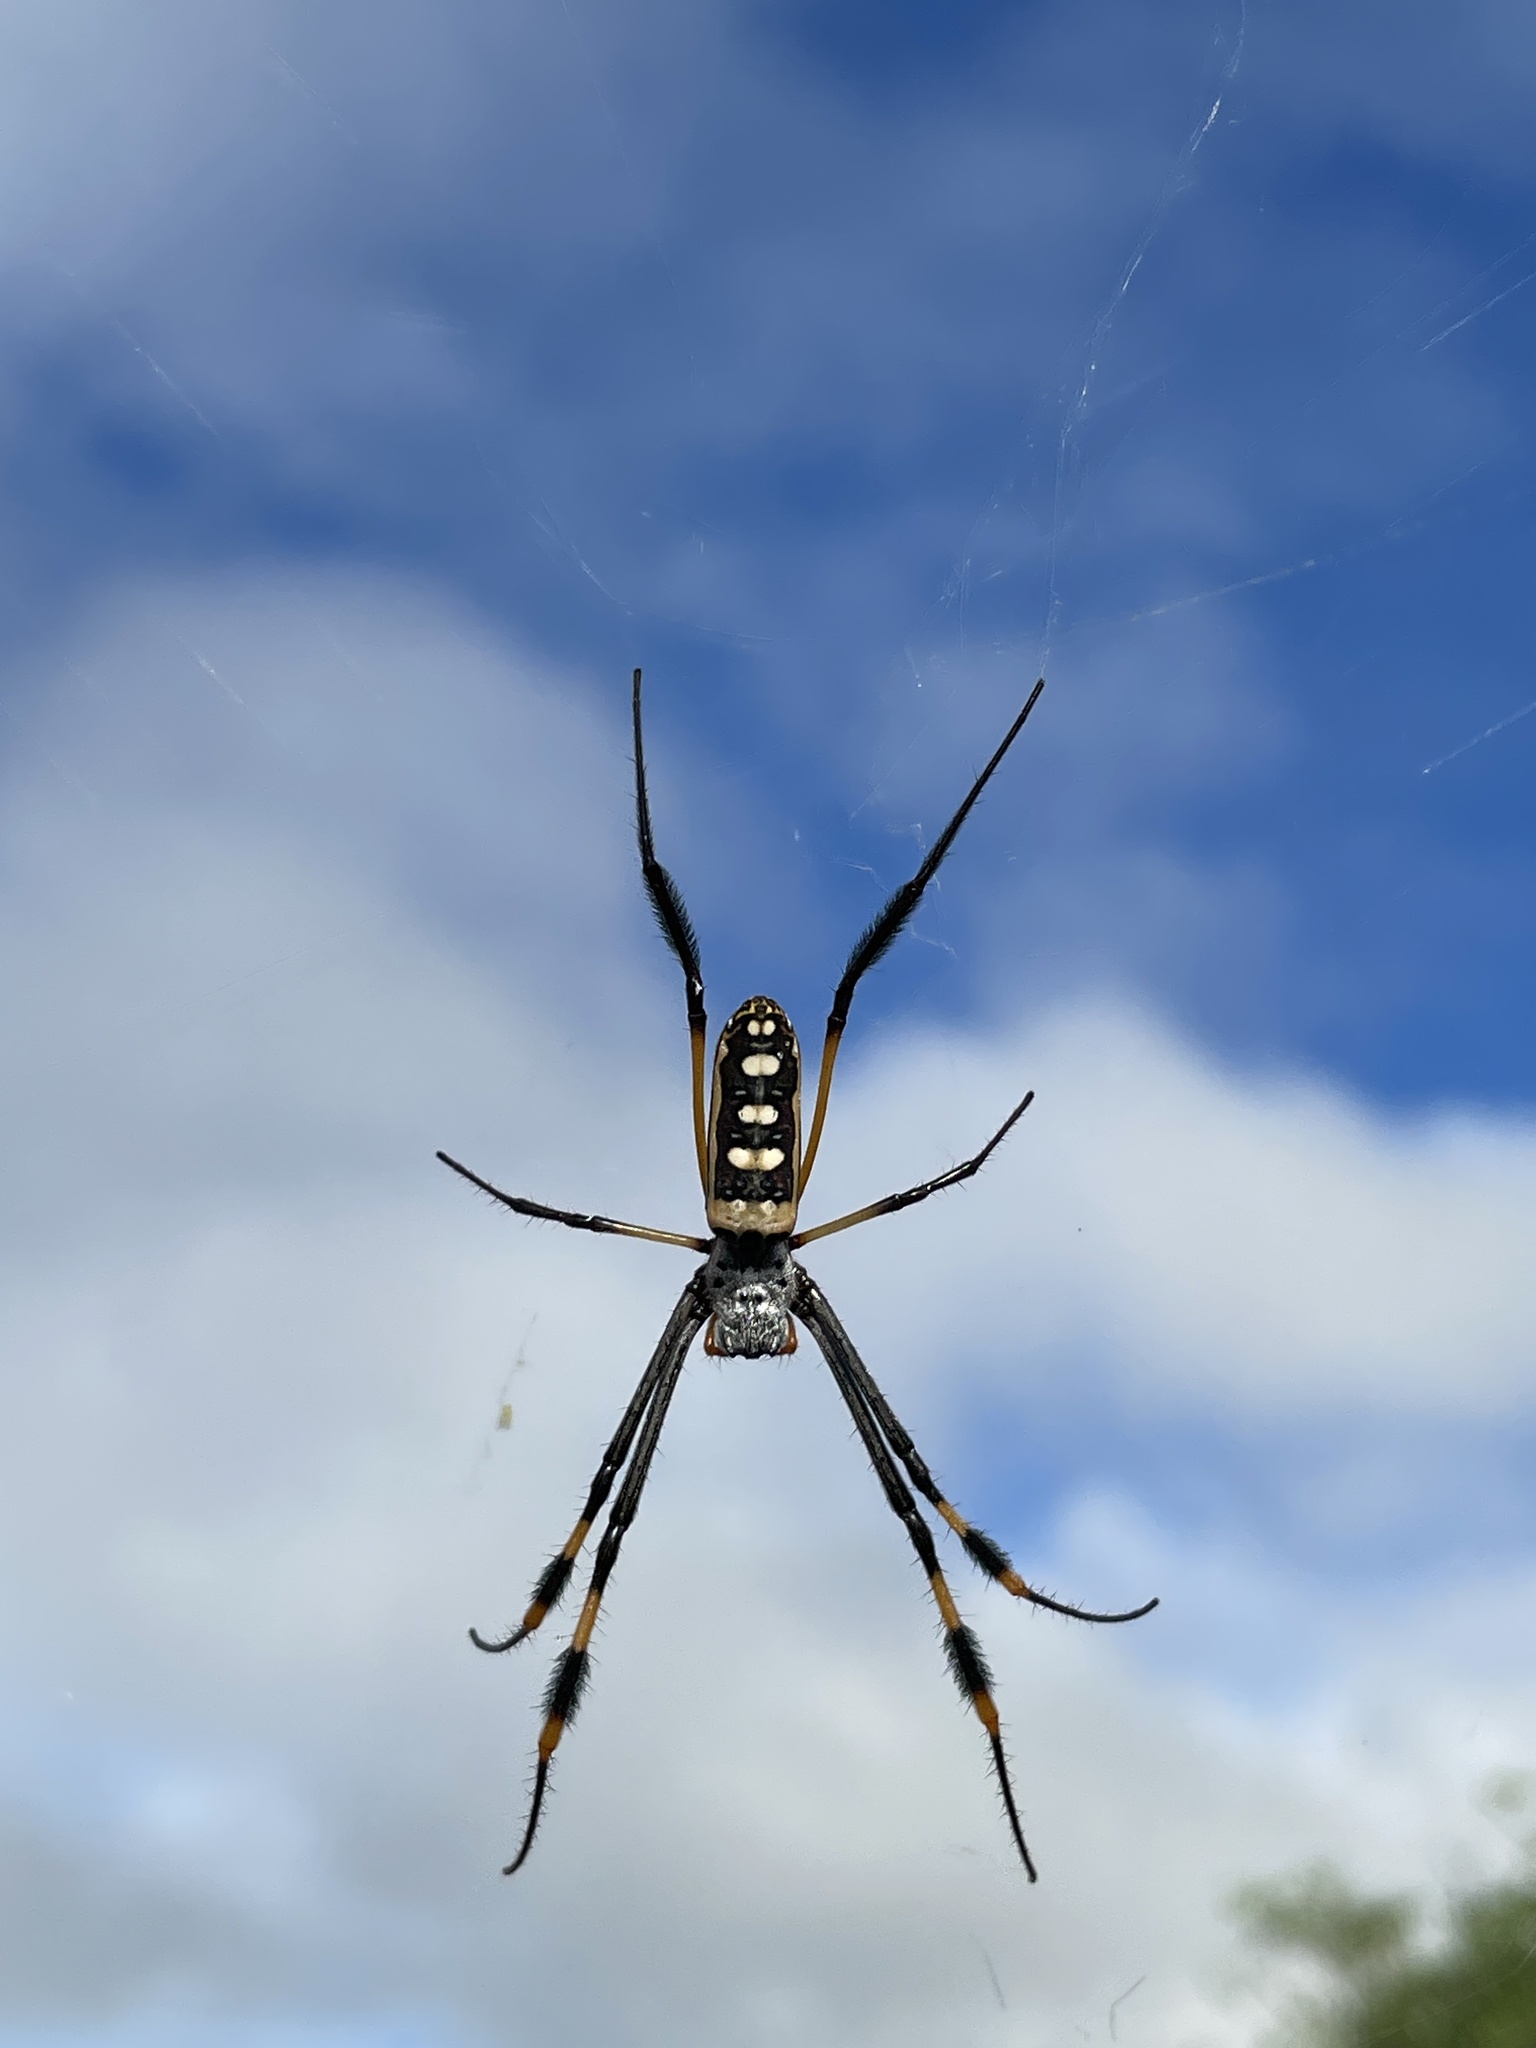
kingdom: Animalia
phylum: Arthropoda
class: Arachnida
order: Araneae
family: Araneidae
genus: Trichonephila
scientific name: Trichonephila senegalensis
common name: Banded golden orb weaver
